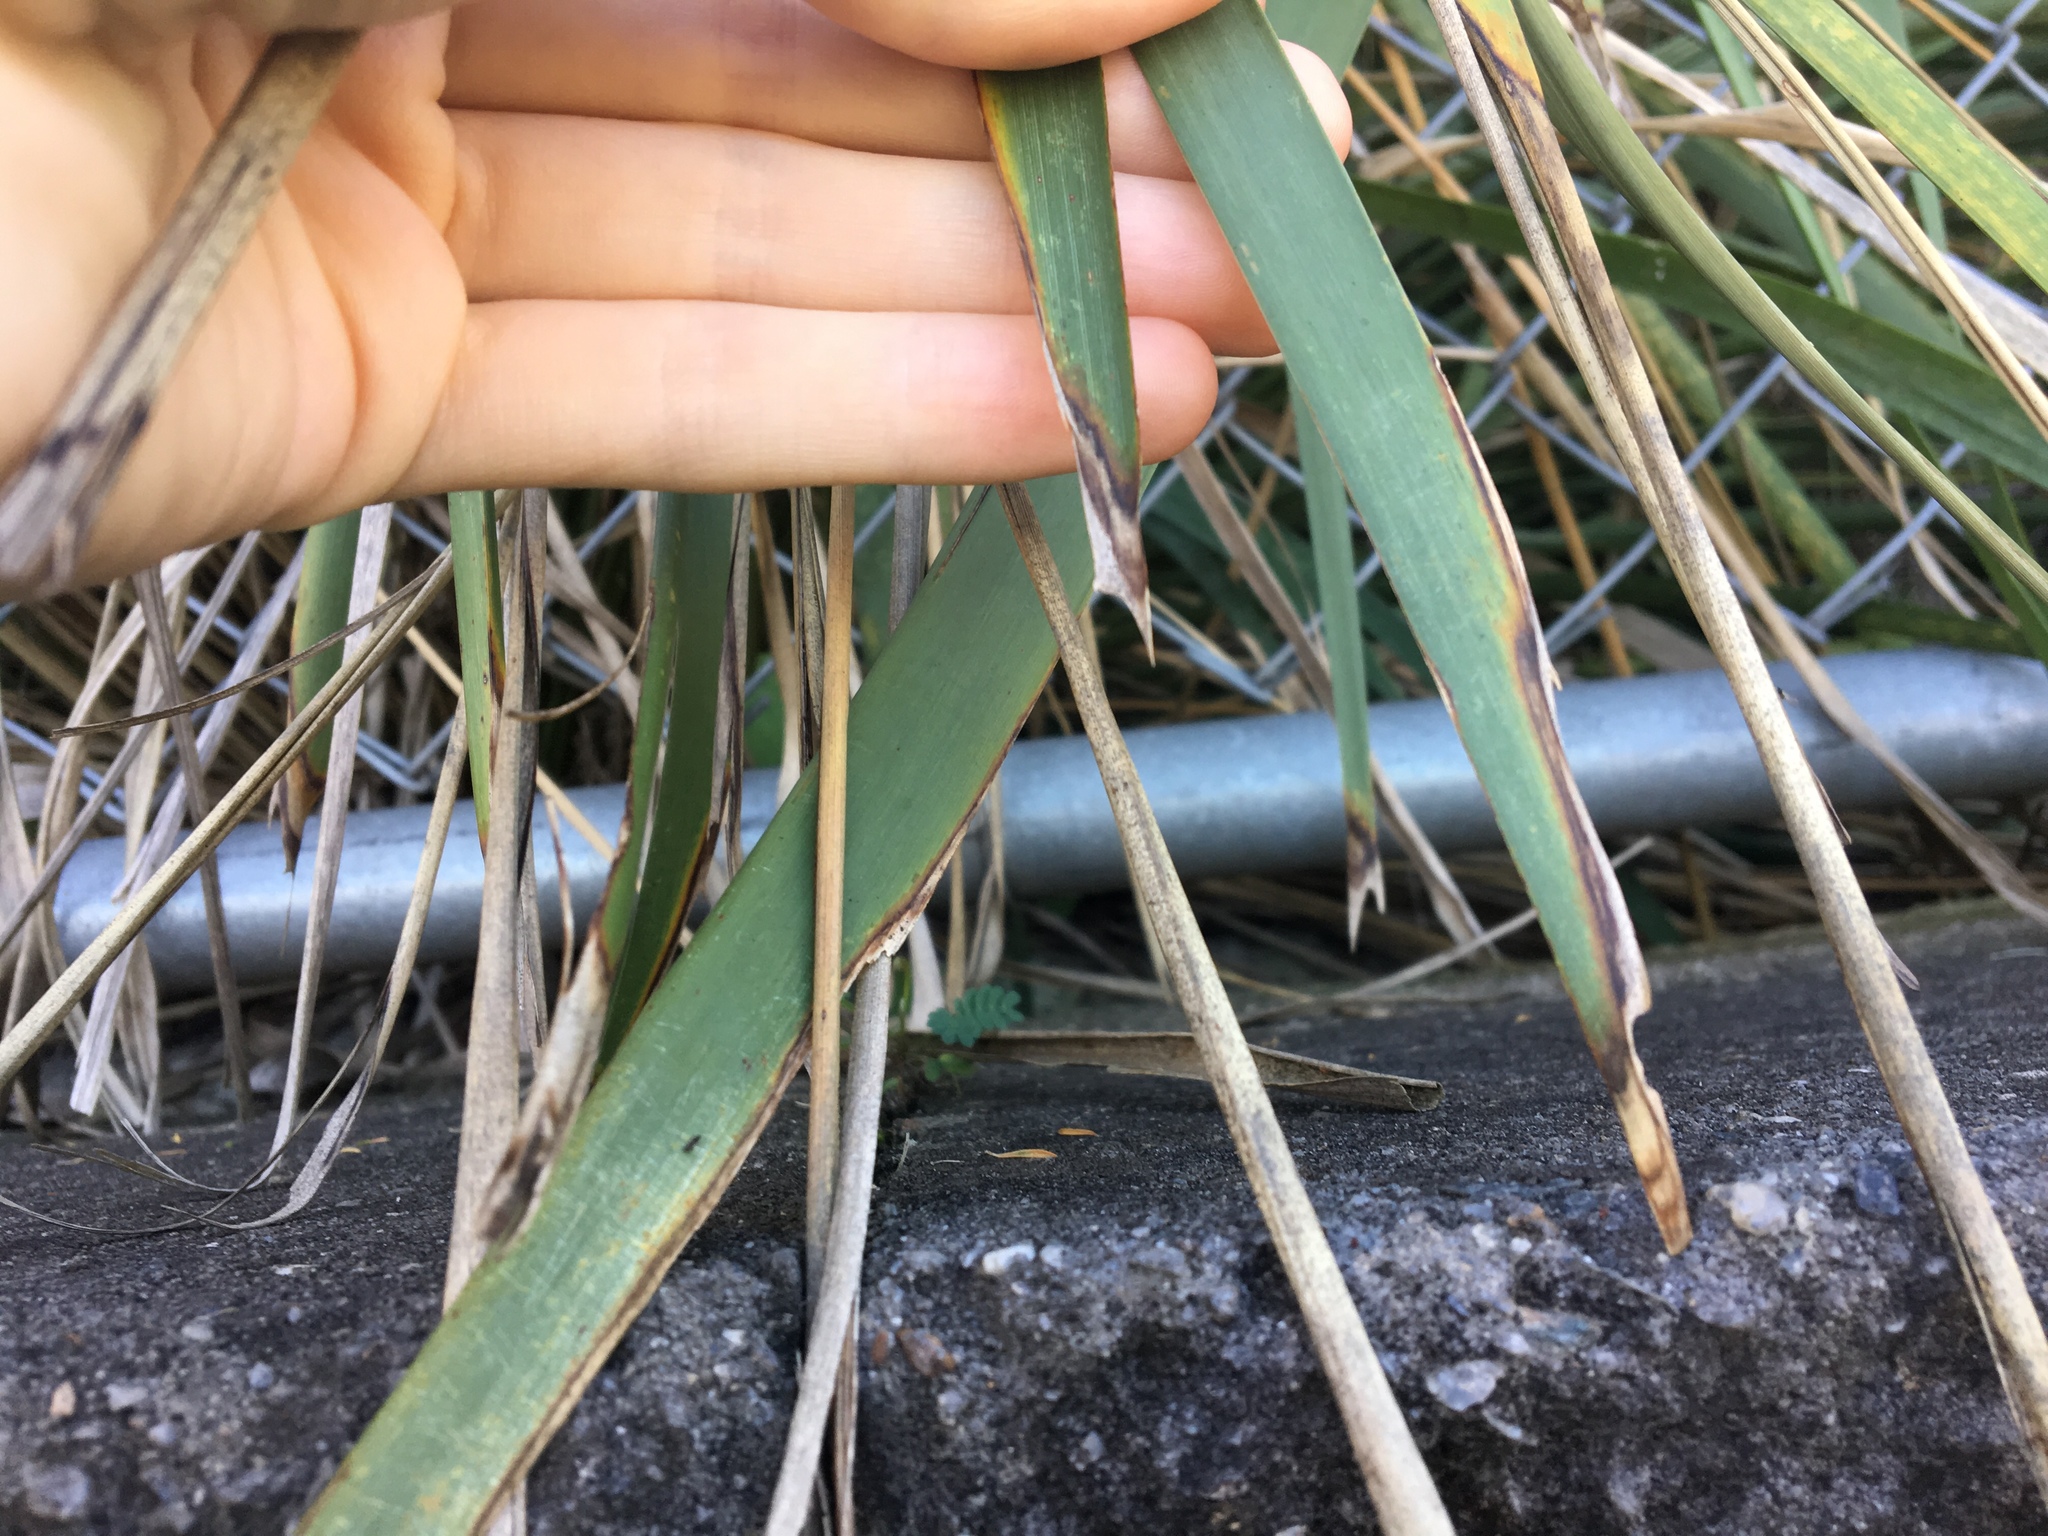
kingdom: Plantae
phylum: Tracheophyta
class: Liliopsida
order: Asparagales
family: Asparagaceae
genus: Lomandra
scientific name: Lomandra longifolia
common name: Longleaf mat-rush
